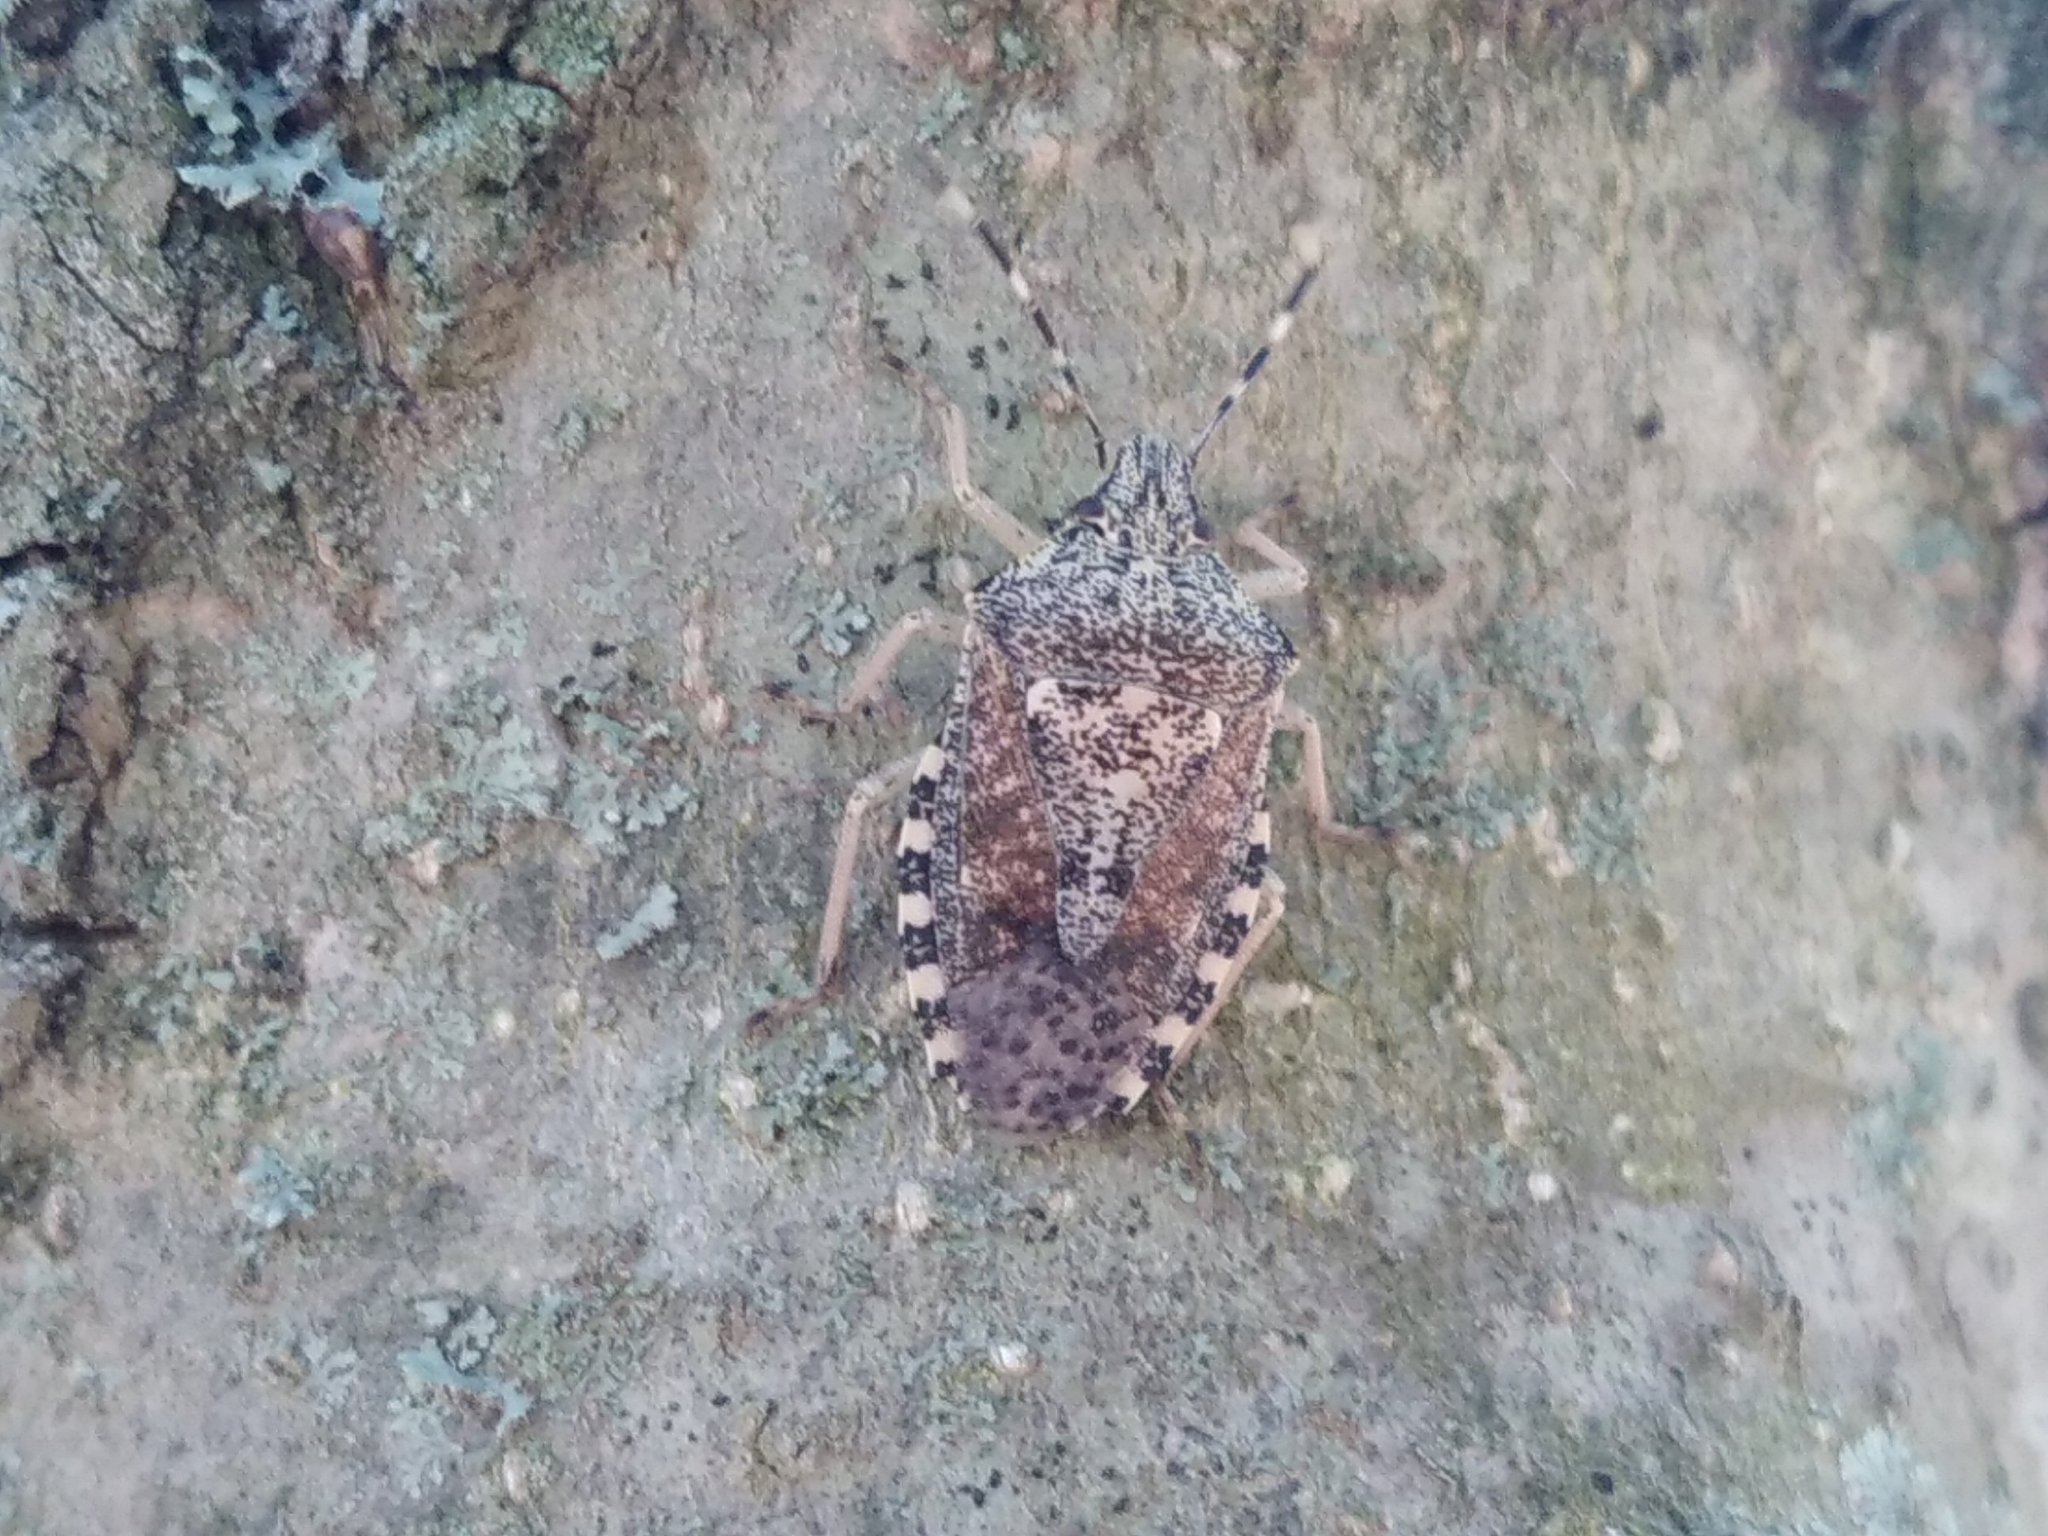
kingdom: Animalia
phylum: Arthropoda
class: Insecta
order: Hemiptera
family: Pentatomidae
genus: Rhaphigaster
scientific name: Rhaphigaster nebulosa
